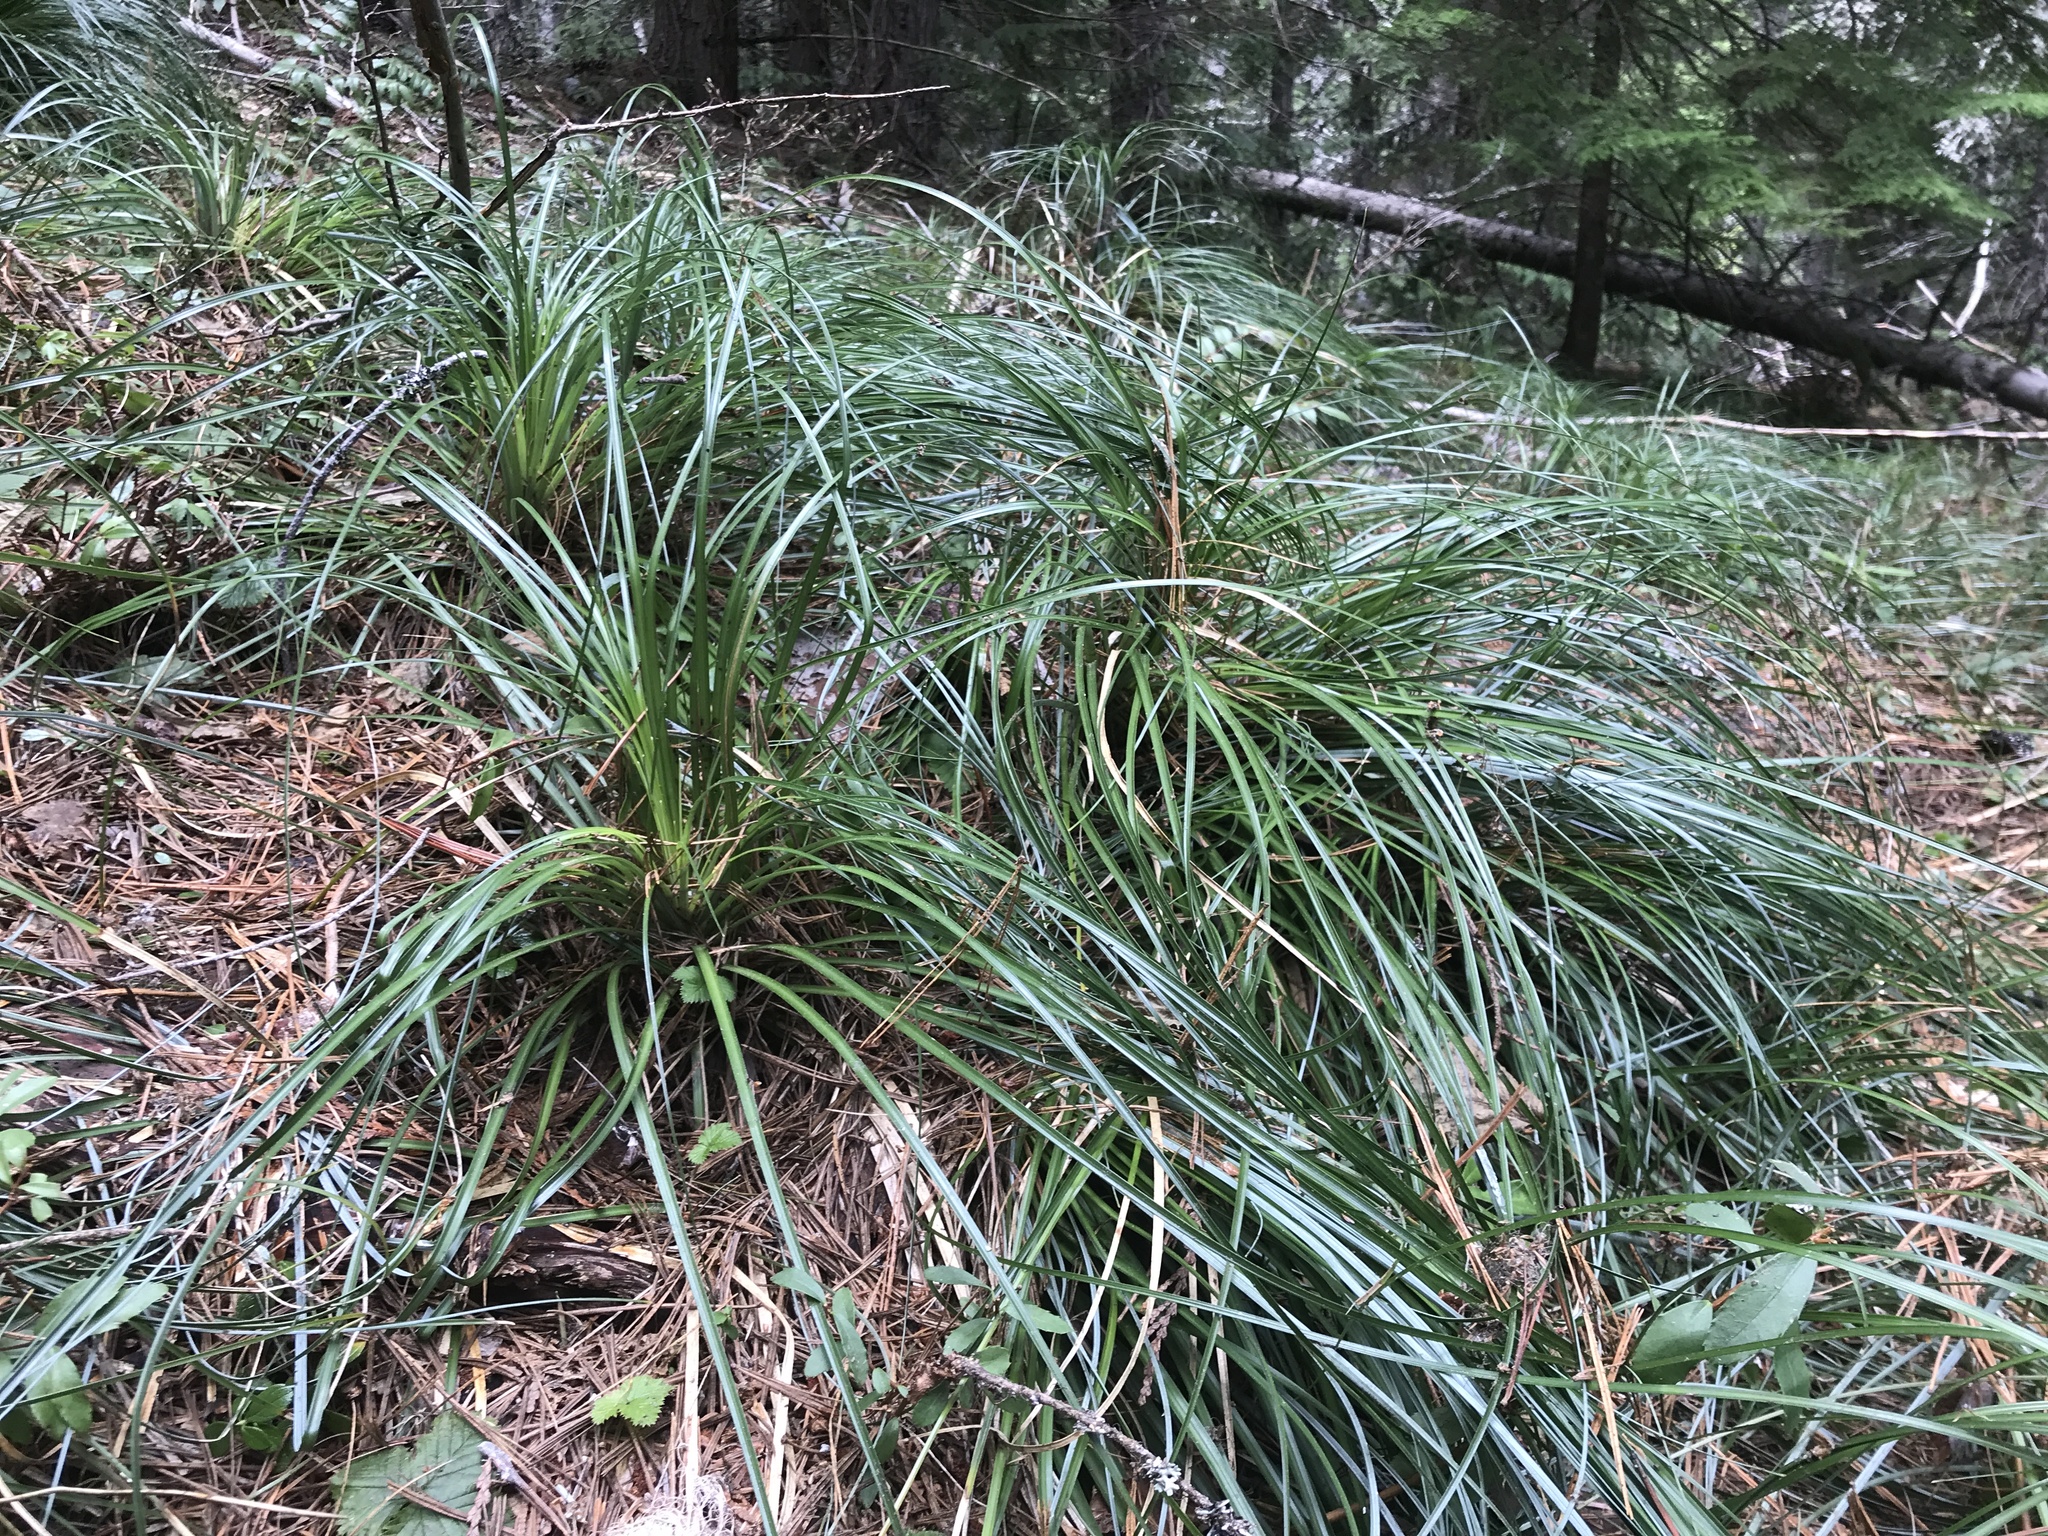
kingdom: Plantae
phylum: Tracheophyta
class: Liliopsida
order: Liliales
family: Melanthiaceae
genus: Xerophyllum
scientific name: Xerophyllum tenax
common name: Bear-grass
